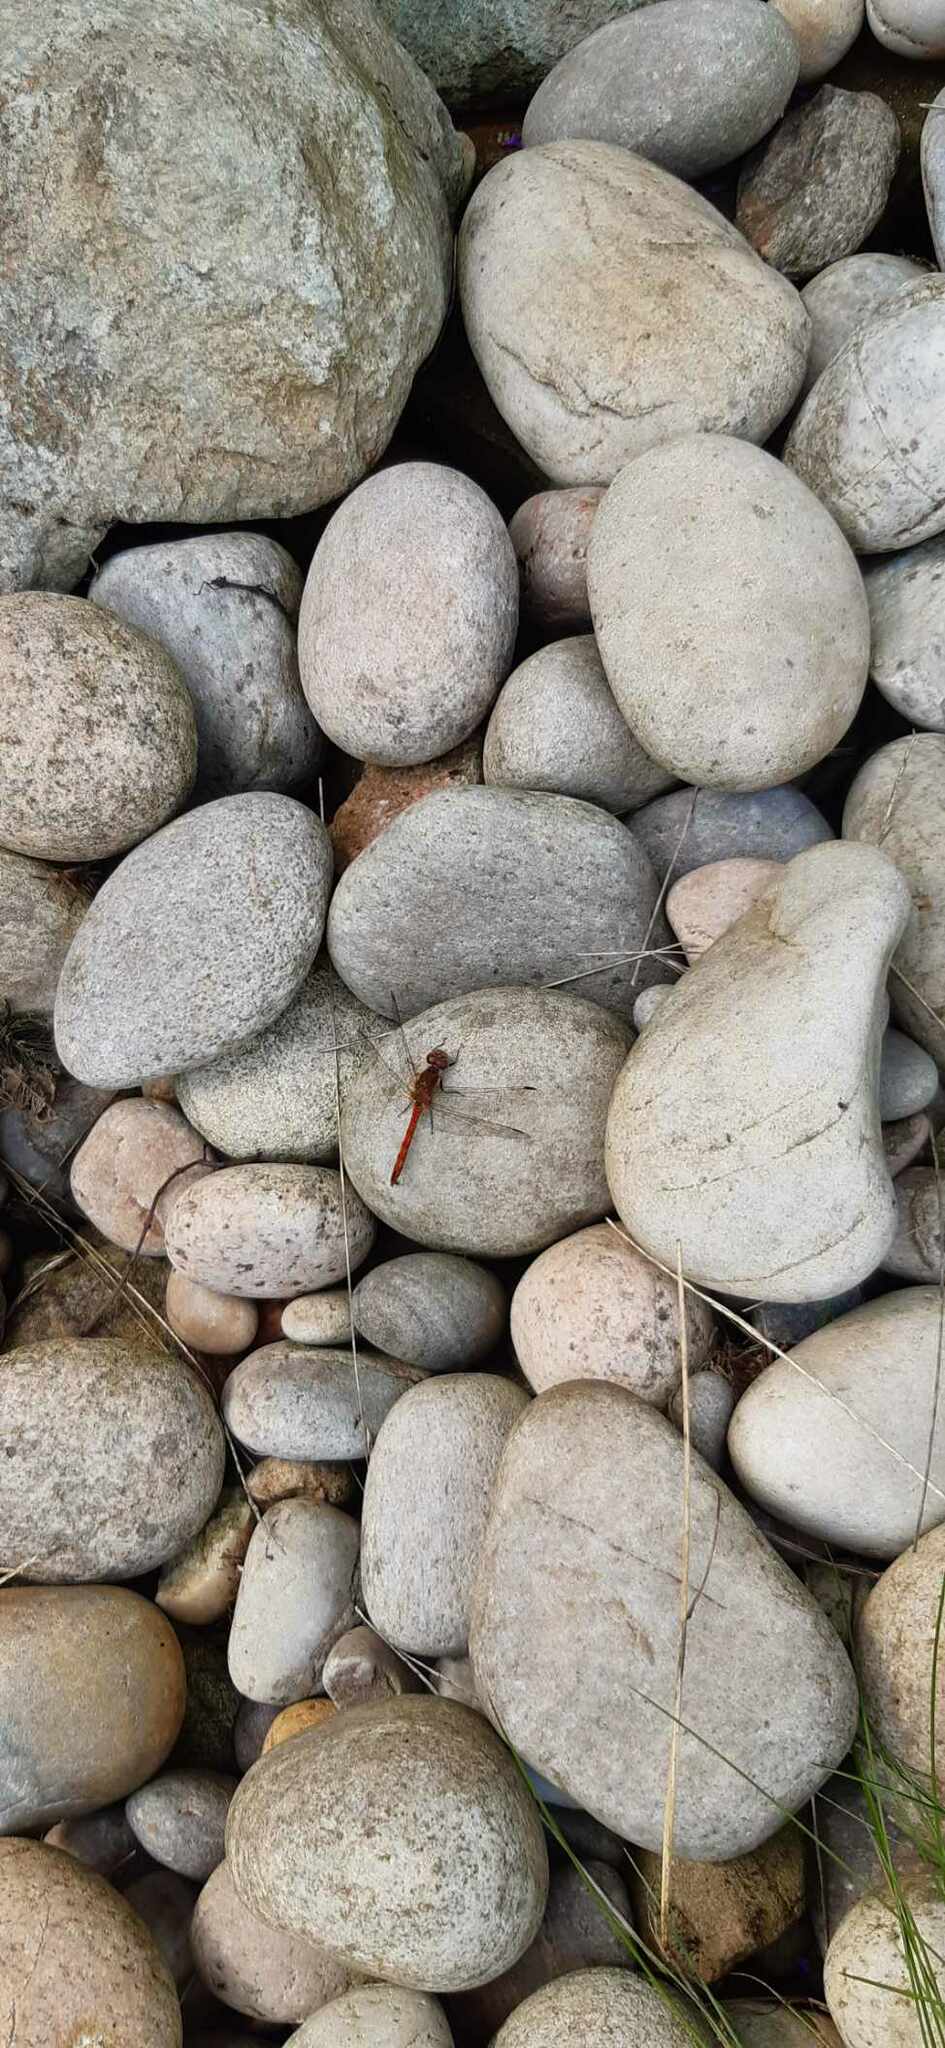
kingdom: Animalia
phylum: Arthropoda
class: Insecta
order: Odonata
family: Libellulidae
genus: Sympetrum
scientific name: Sympetrum striolatum
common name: Common darter
